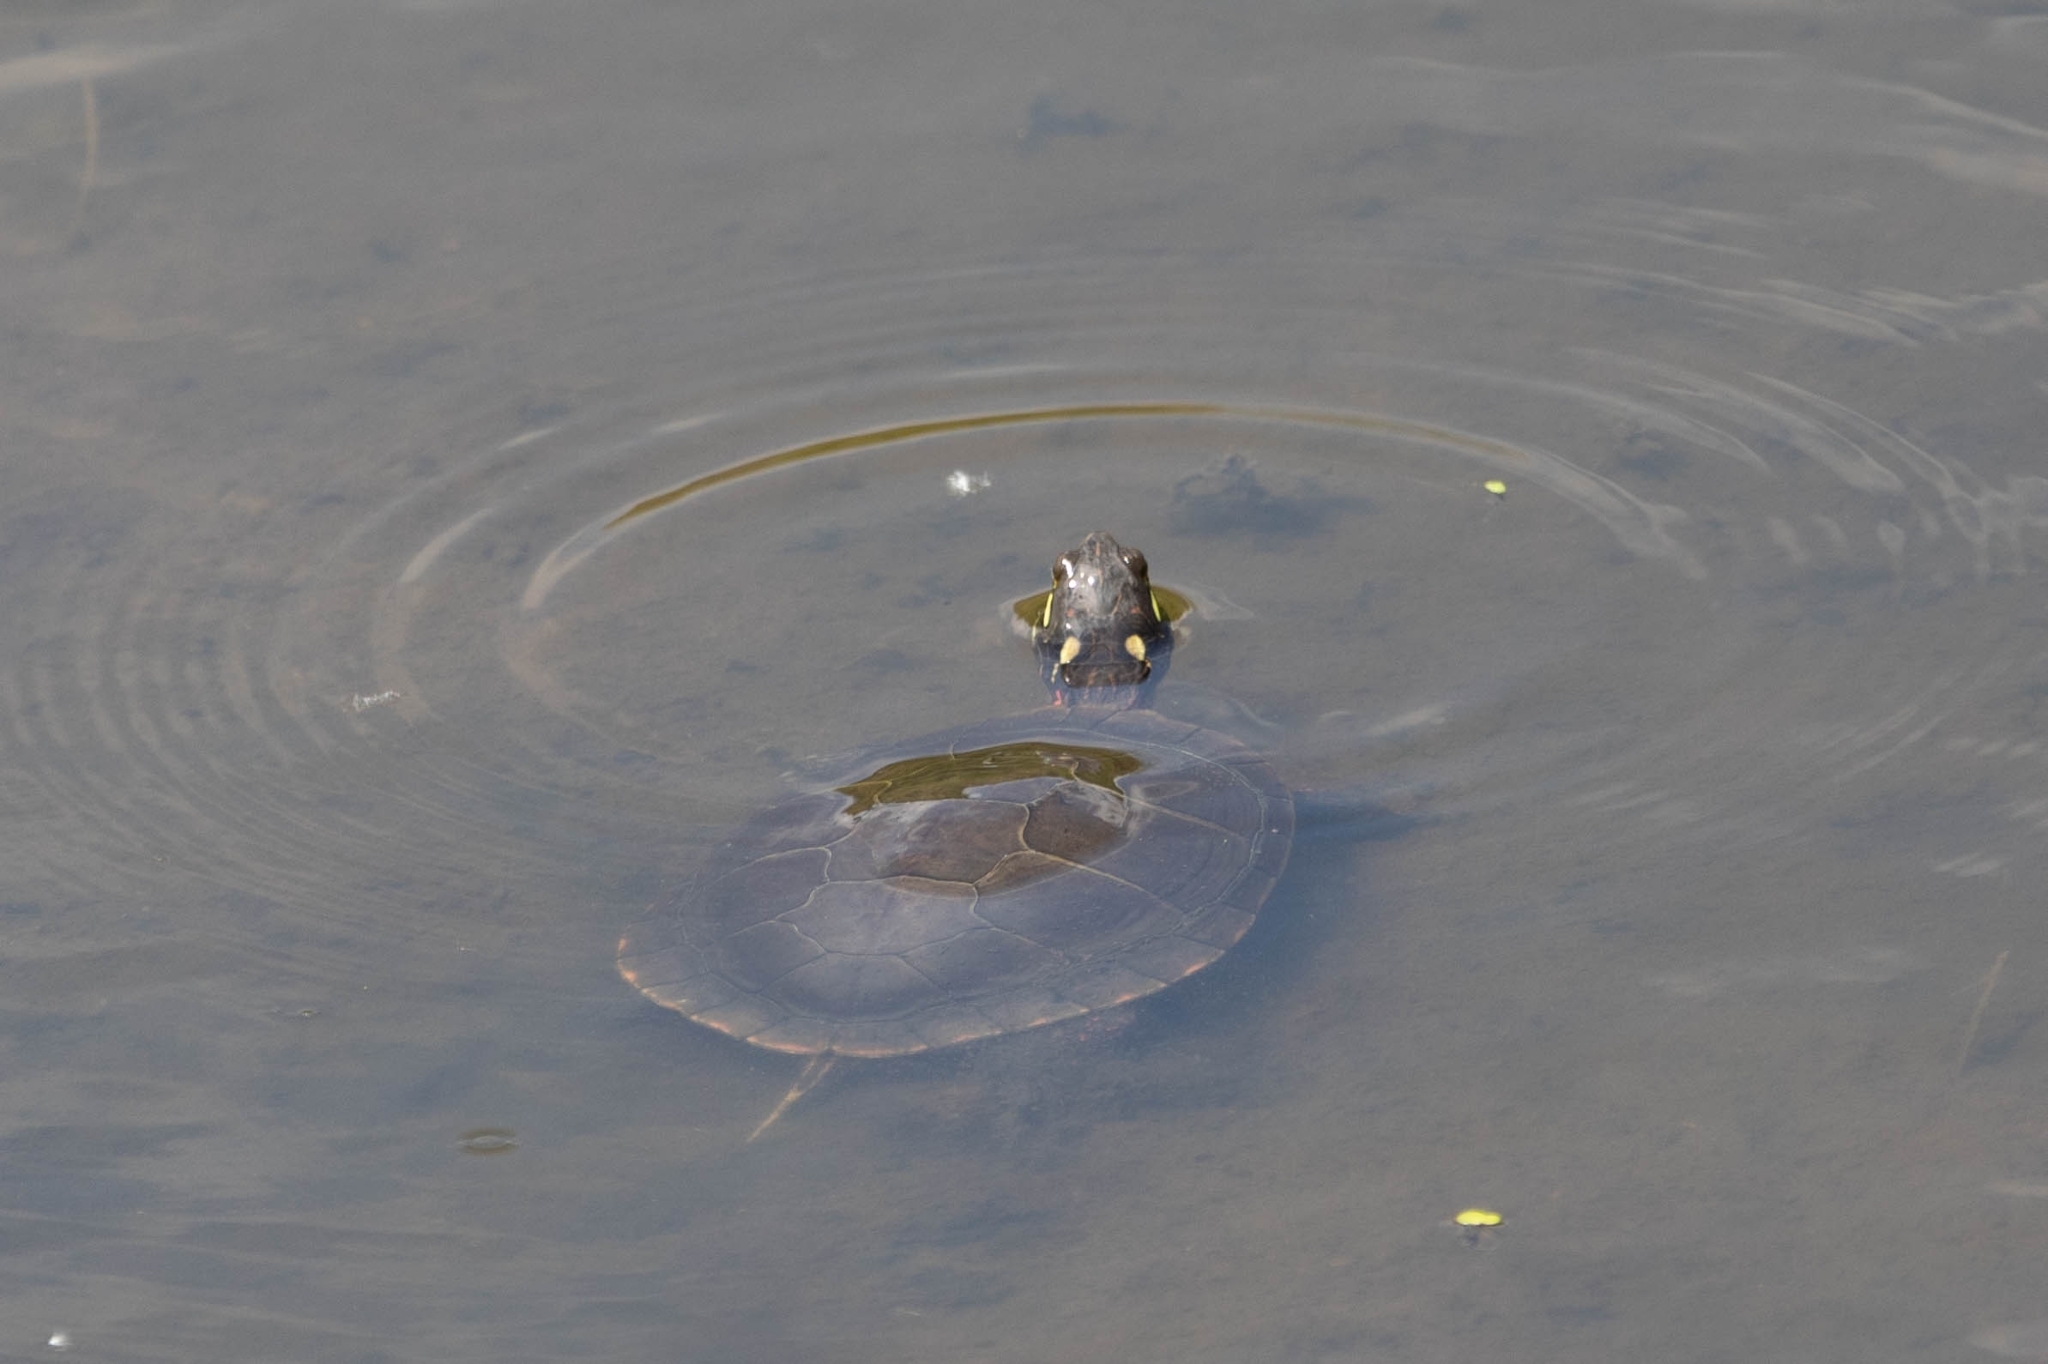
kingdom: Animalia
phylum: Chordata
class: Testudines
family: Emydidae
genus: Chrysemys
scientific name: Chrysemys picta
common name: Painted turtle
